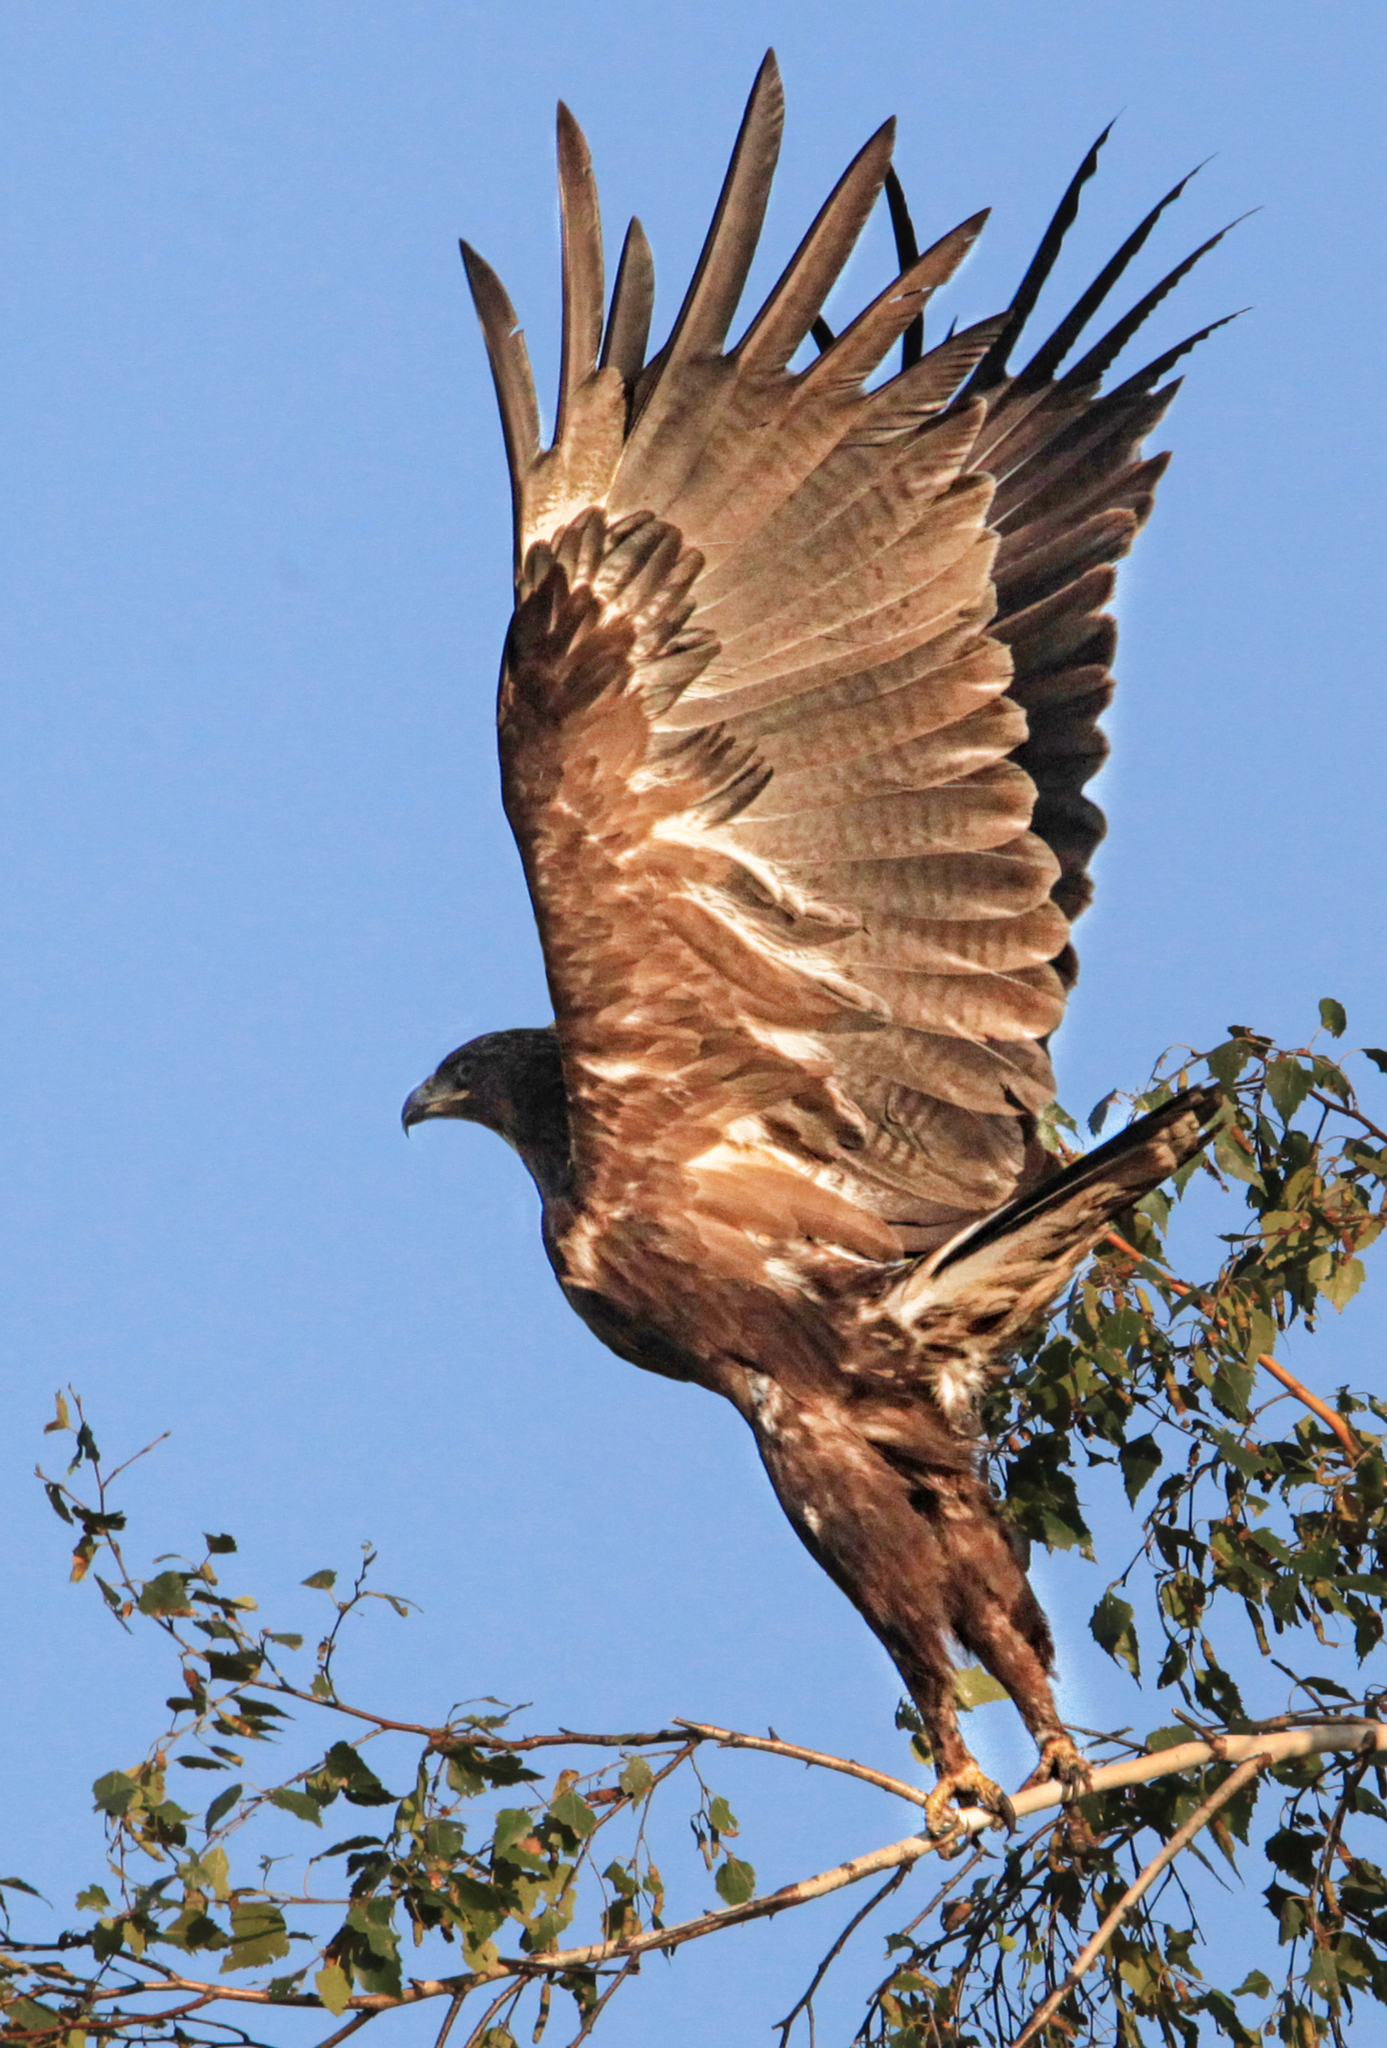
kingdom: Animalia
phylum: Chordata
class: Aves
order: Accipitriformes
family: Accipitridae
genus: Aquila
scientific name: Aquila clanga
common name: Greater spotted eagle
